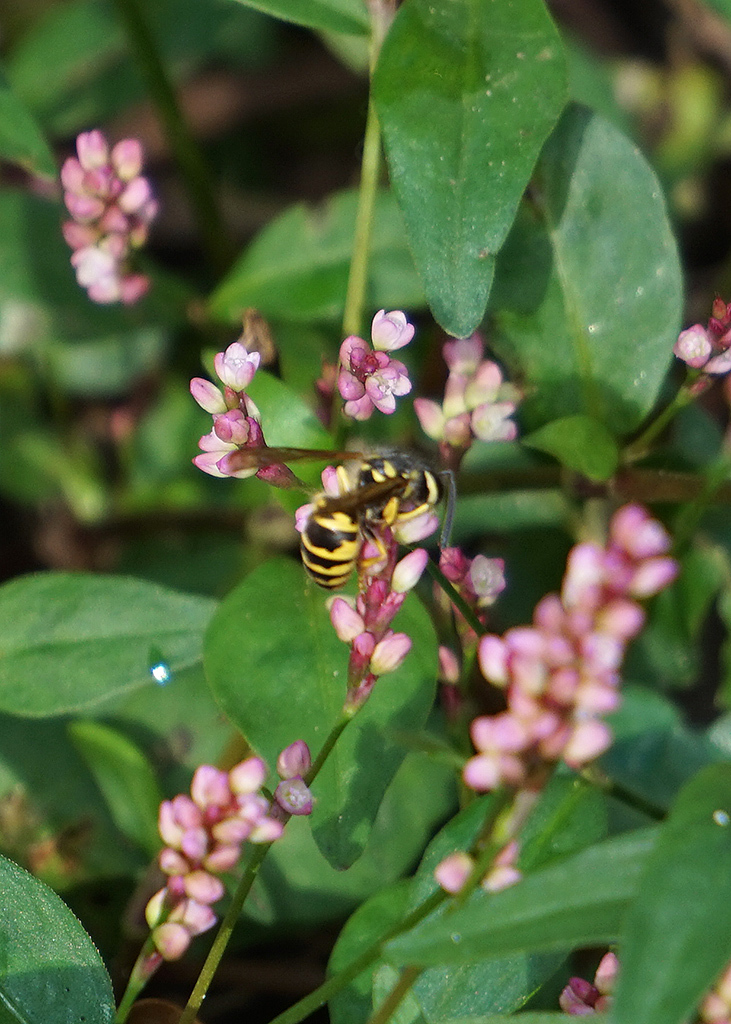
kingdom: Animalia
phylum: Arthropoda
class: Insecta
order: Hymenoptera
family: Vespidae
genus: Vespula
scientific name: Vespula maculifrons
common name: Eastern yellowjacket
